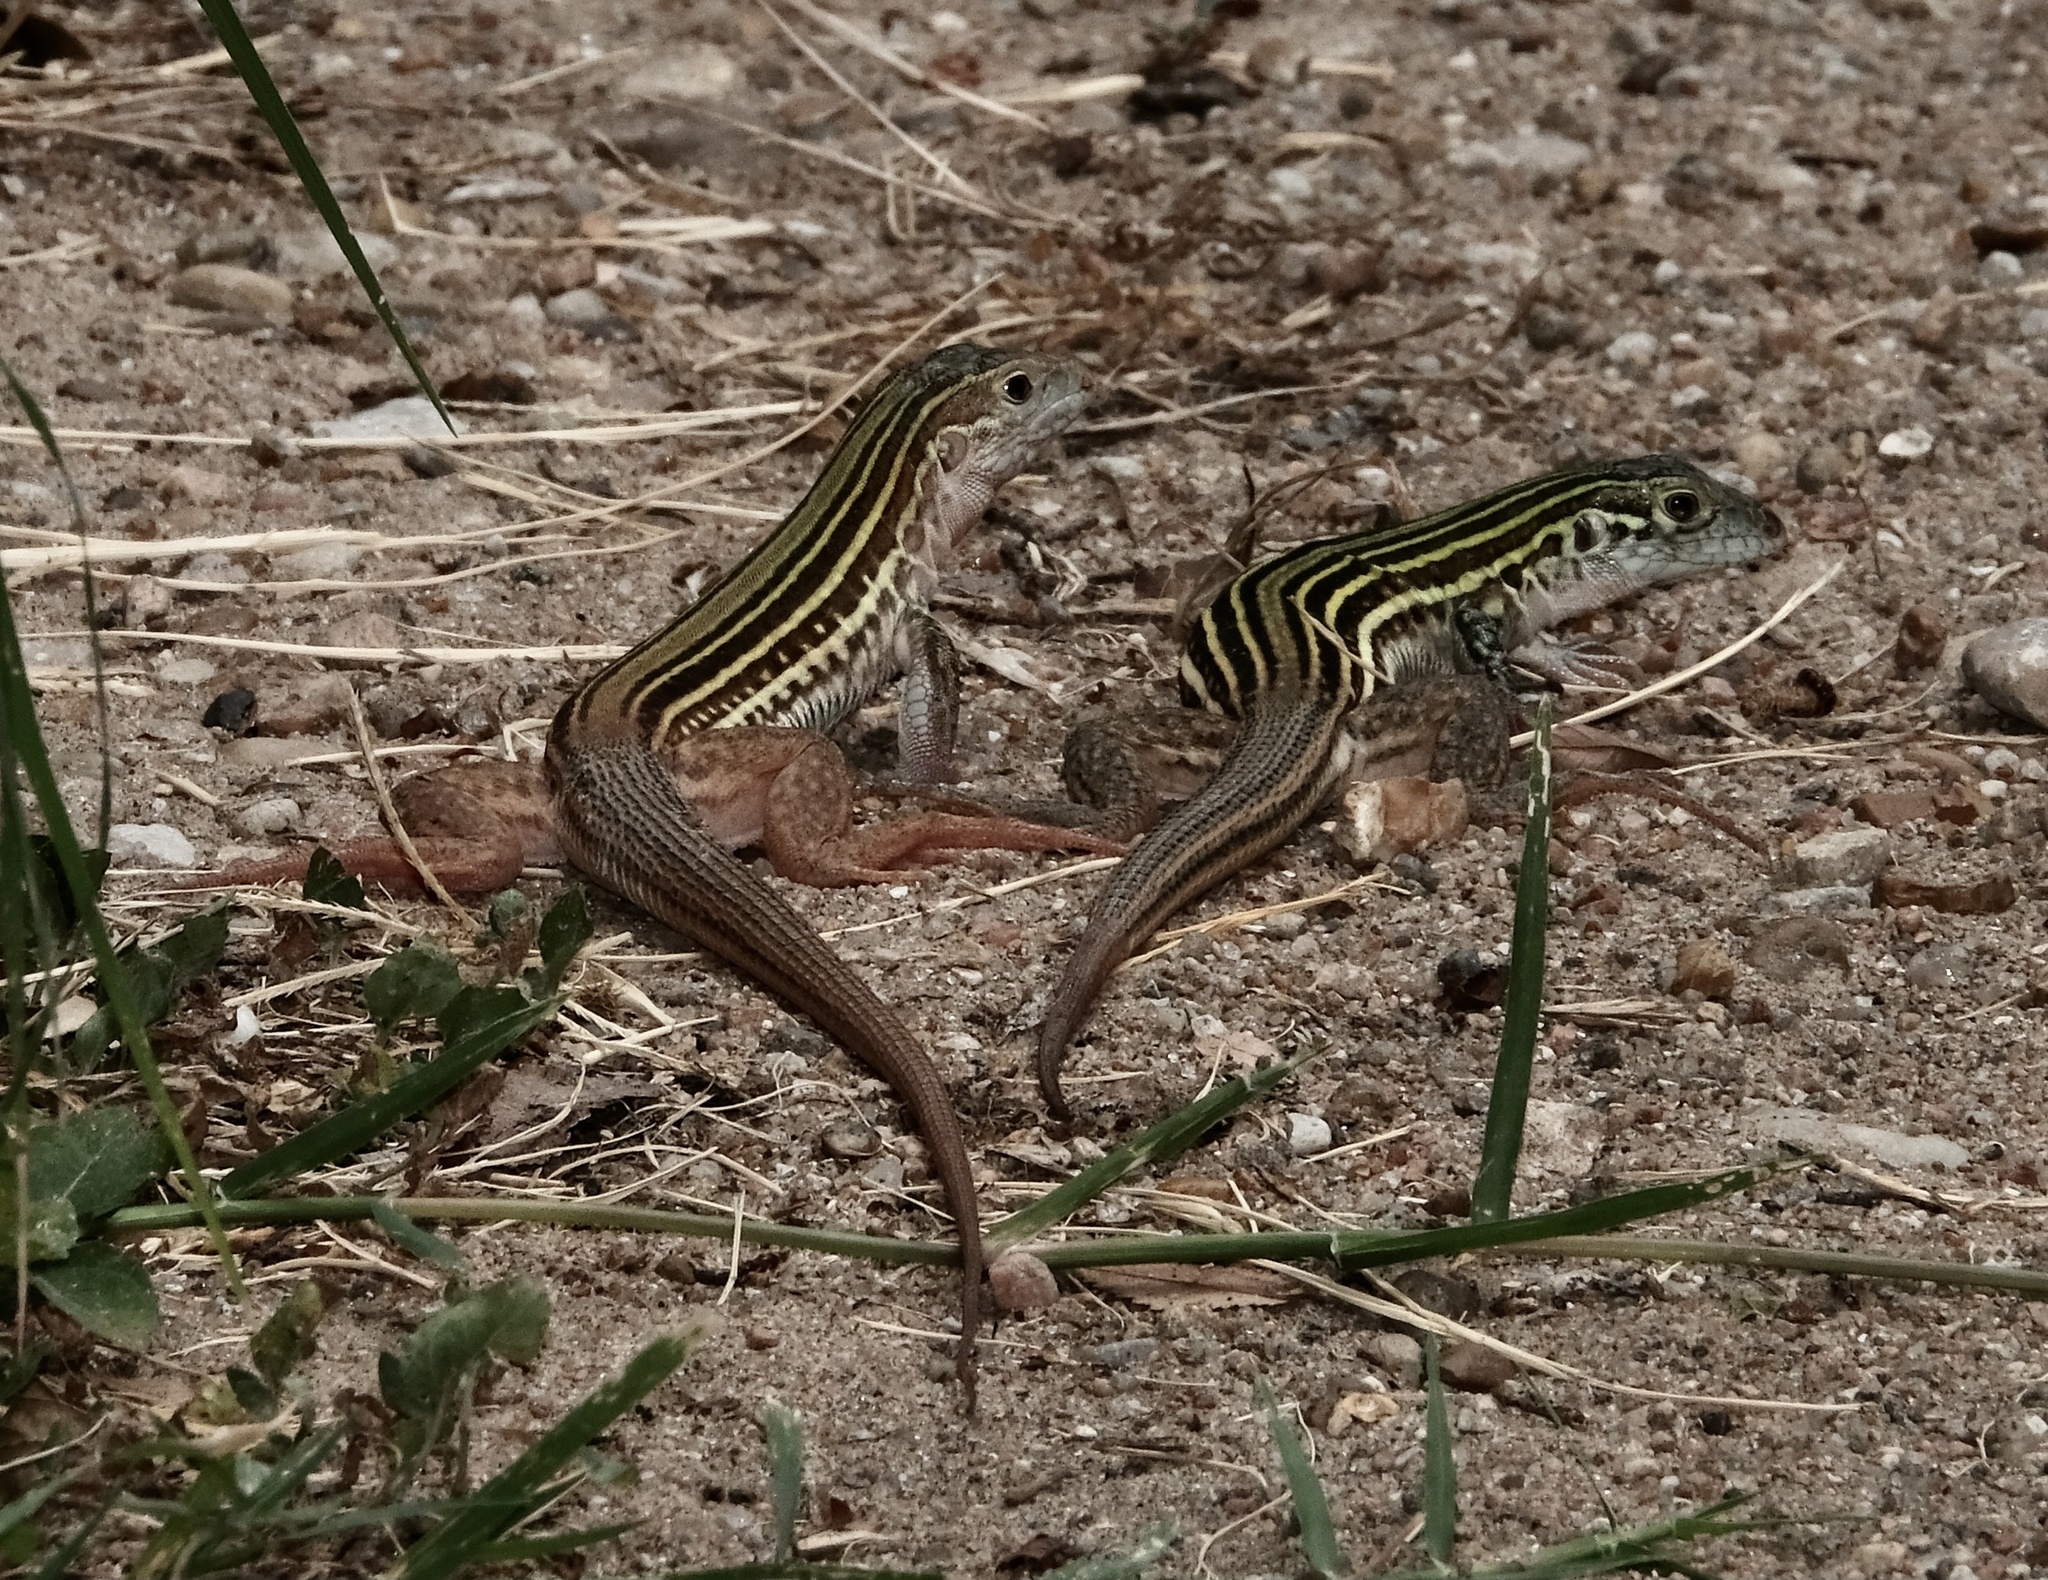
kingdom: Animalia
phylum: Chordata
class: Squamata
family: Teiidae
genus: Aspidoscelis
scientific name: Aspidoscelis gularis
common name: Eastern spotted whiptail
